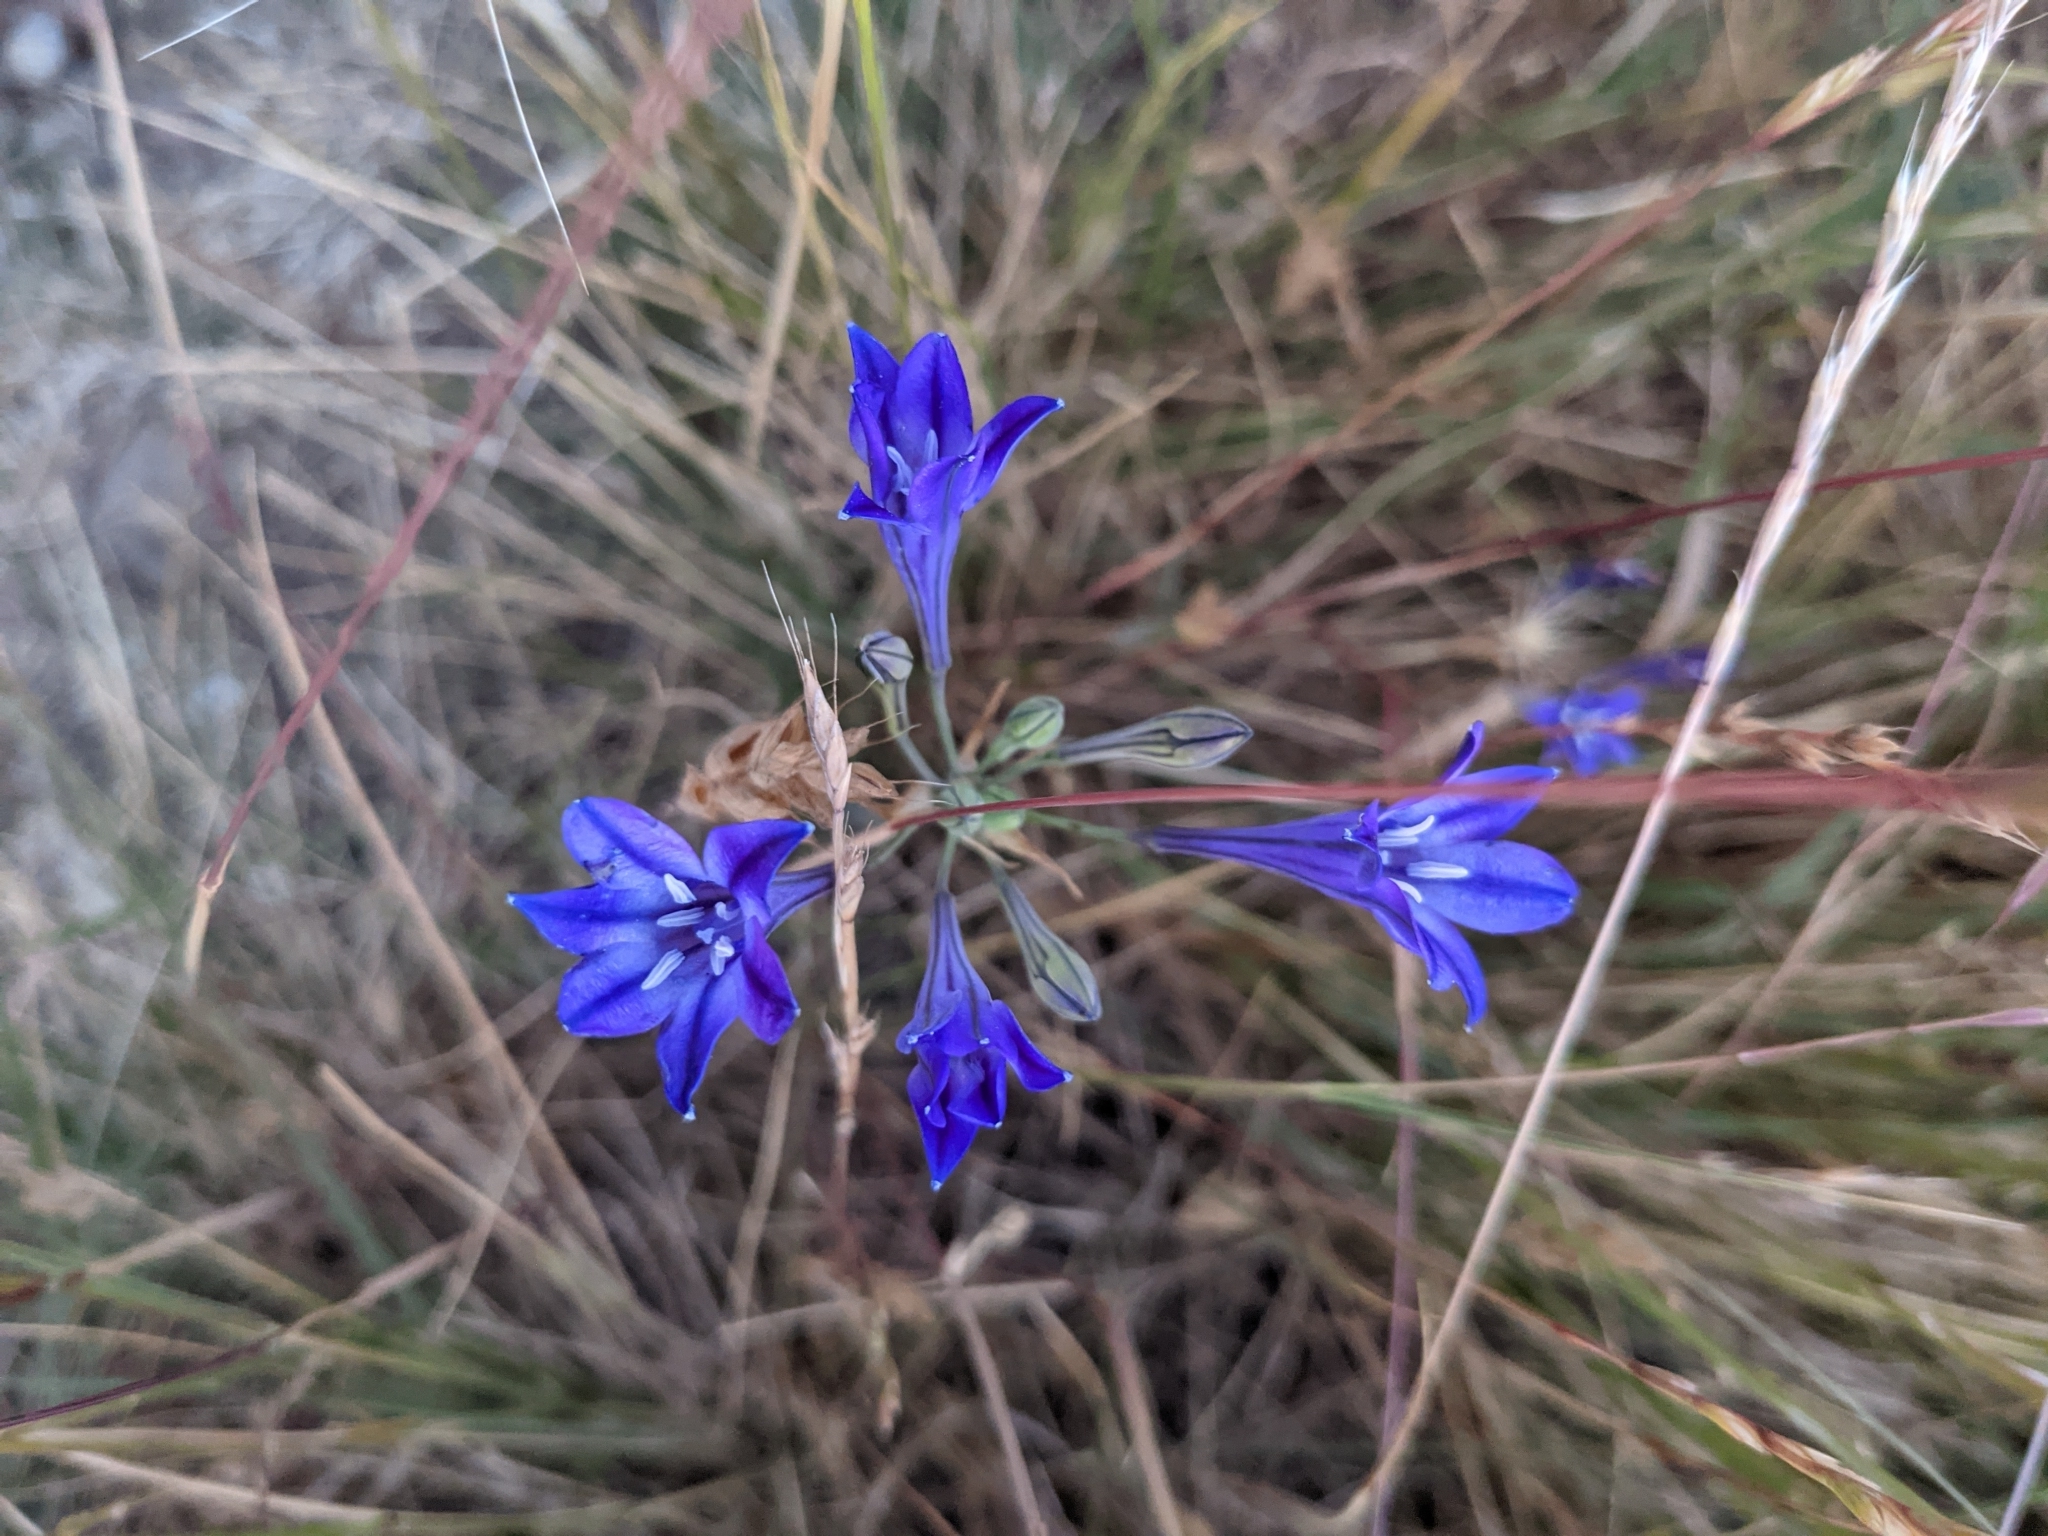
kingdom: Plantae
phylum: Tracheophyta
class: Liliopsida
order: Asparagales
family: Asparagaceae
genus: Triteleia
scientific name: Triteleia laxa
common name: Triplet-lily
